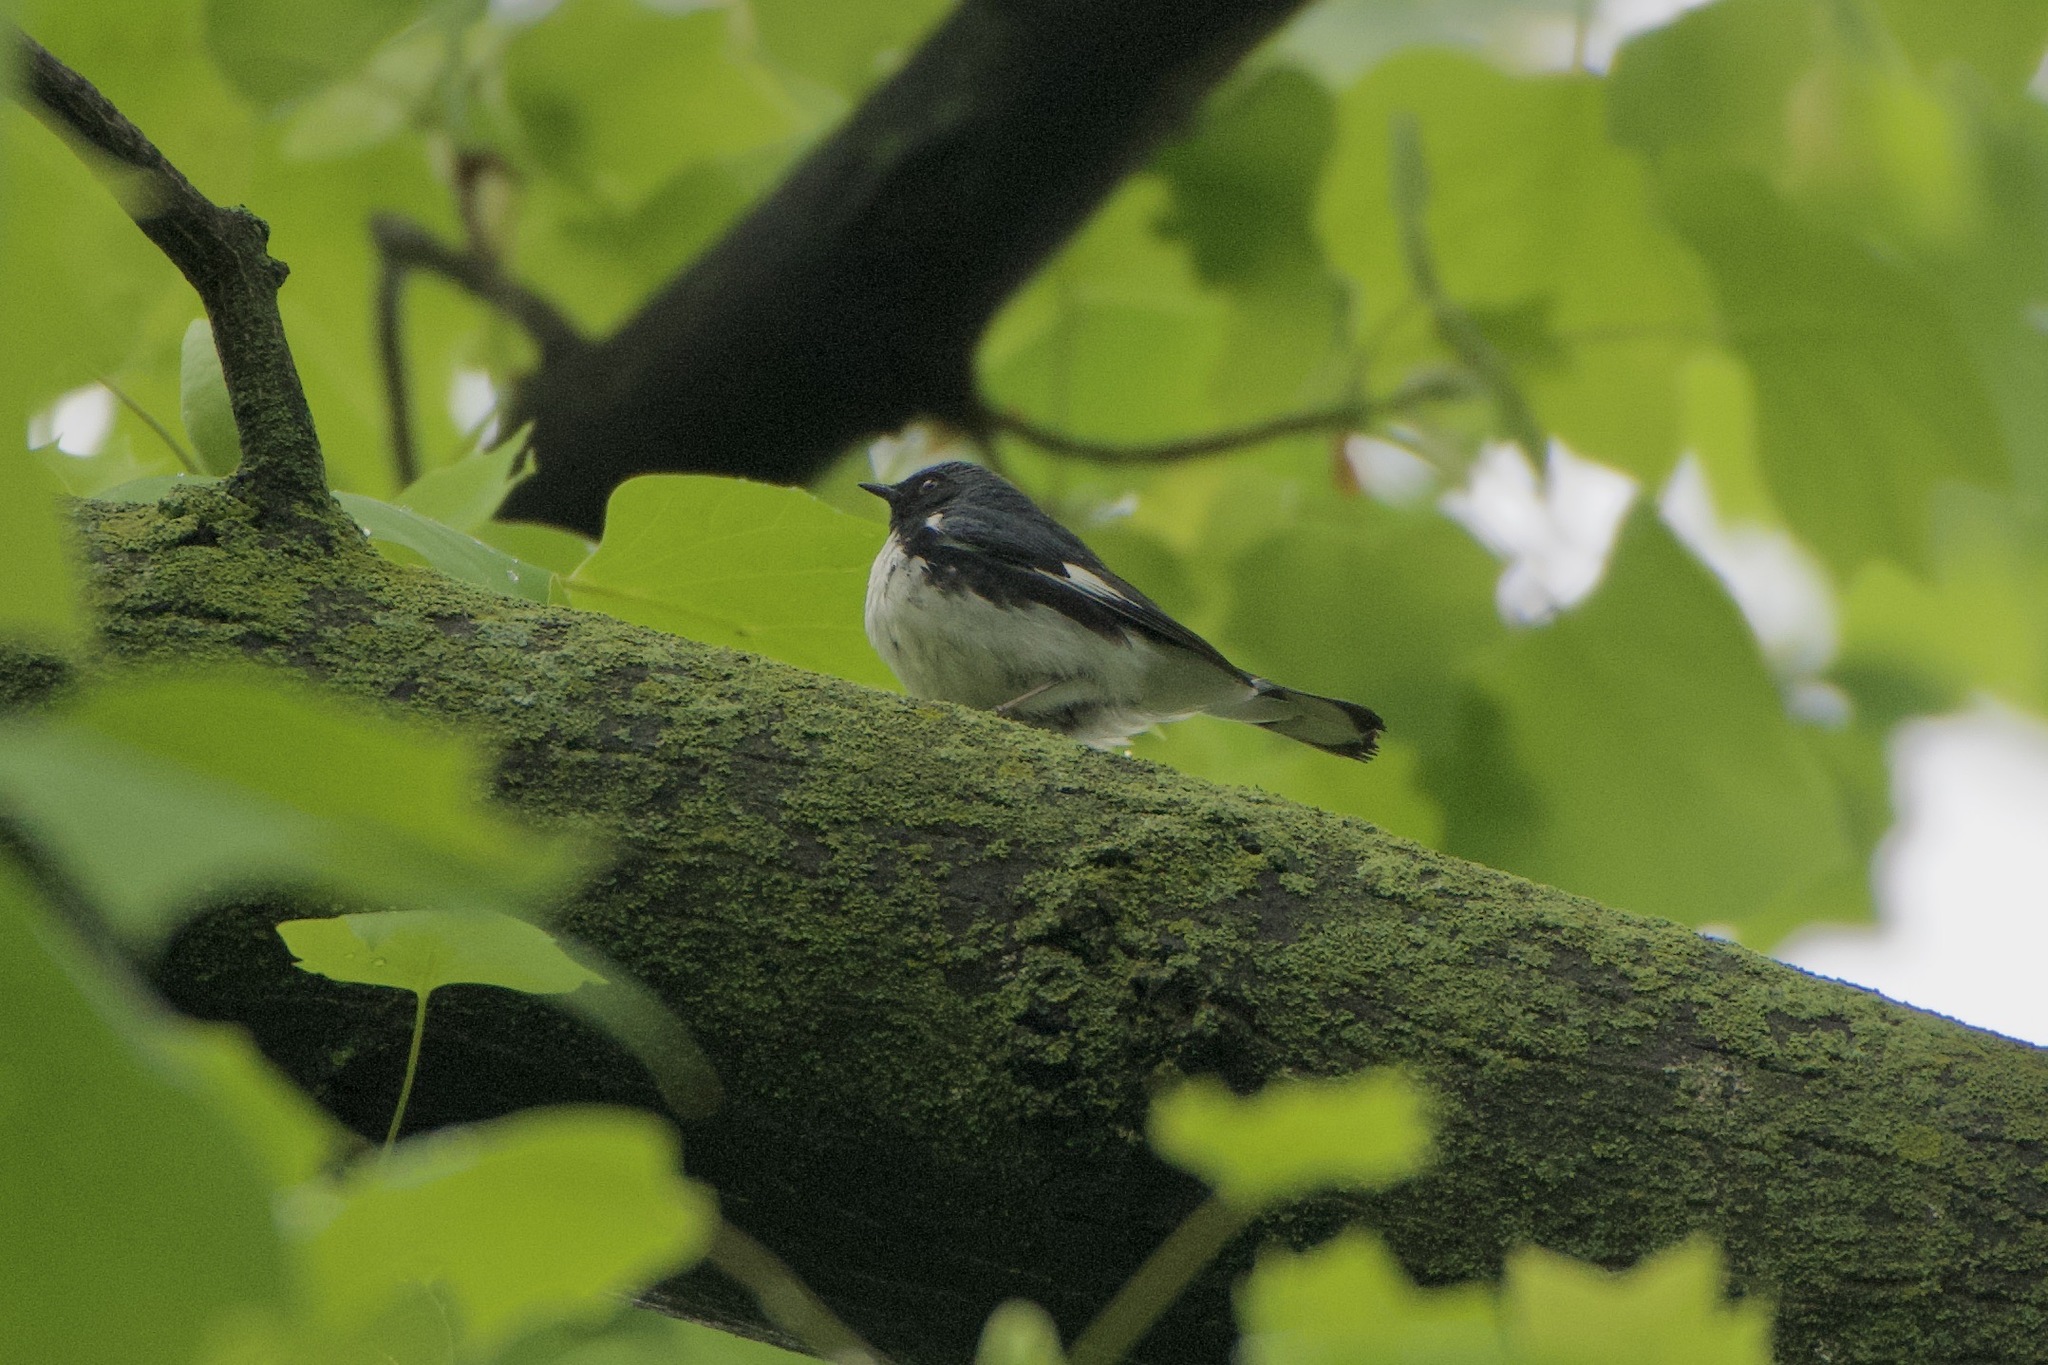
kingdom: Animalia
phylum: Chordata
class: Aves
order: Passeriformes
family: Parulidae
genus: Setophaga
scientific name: Setophaga caerulescens
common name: Black-throated blue warbler
